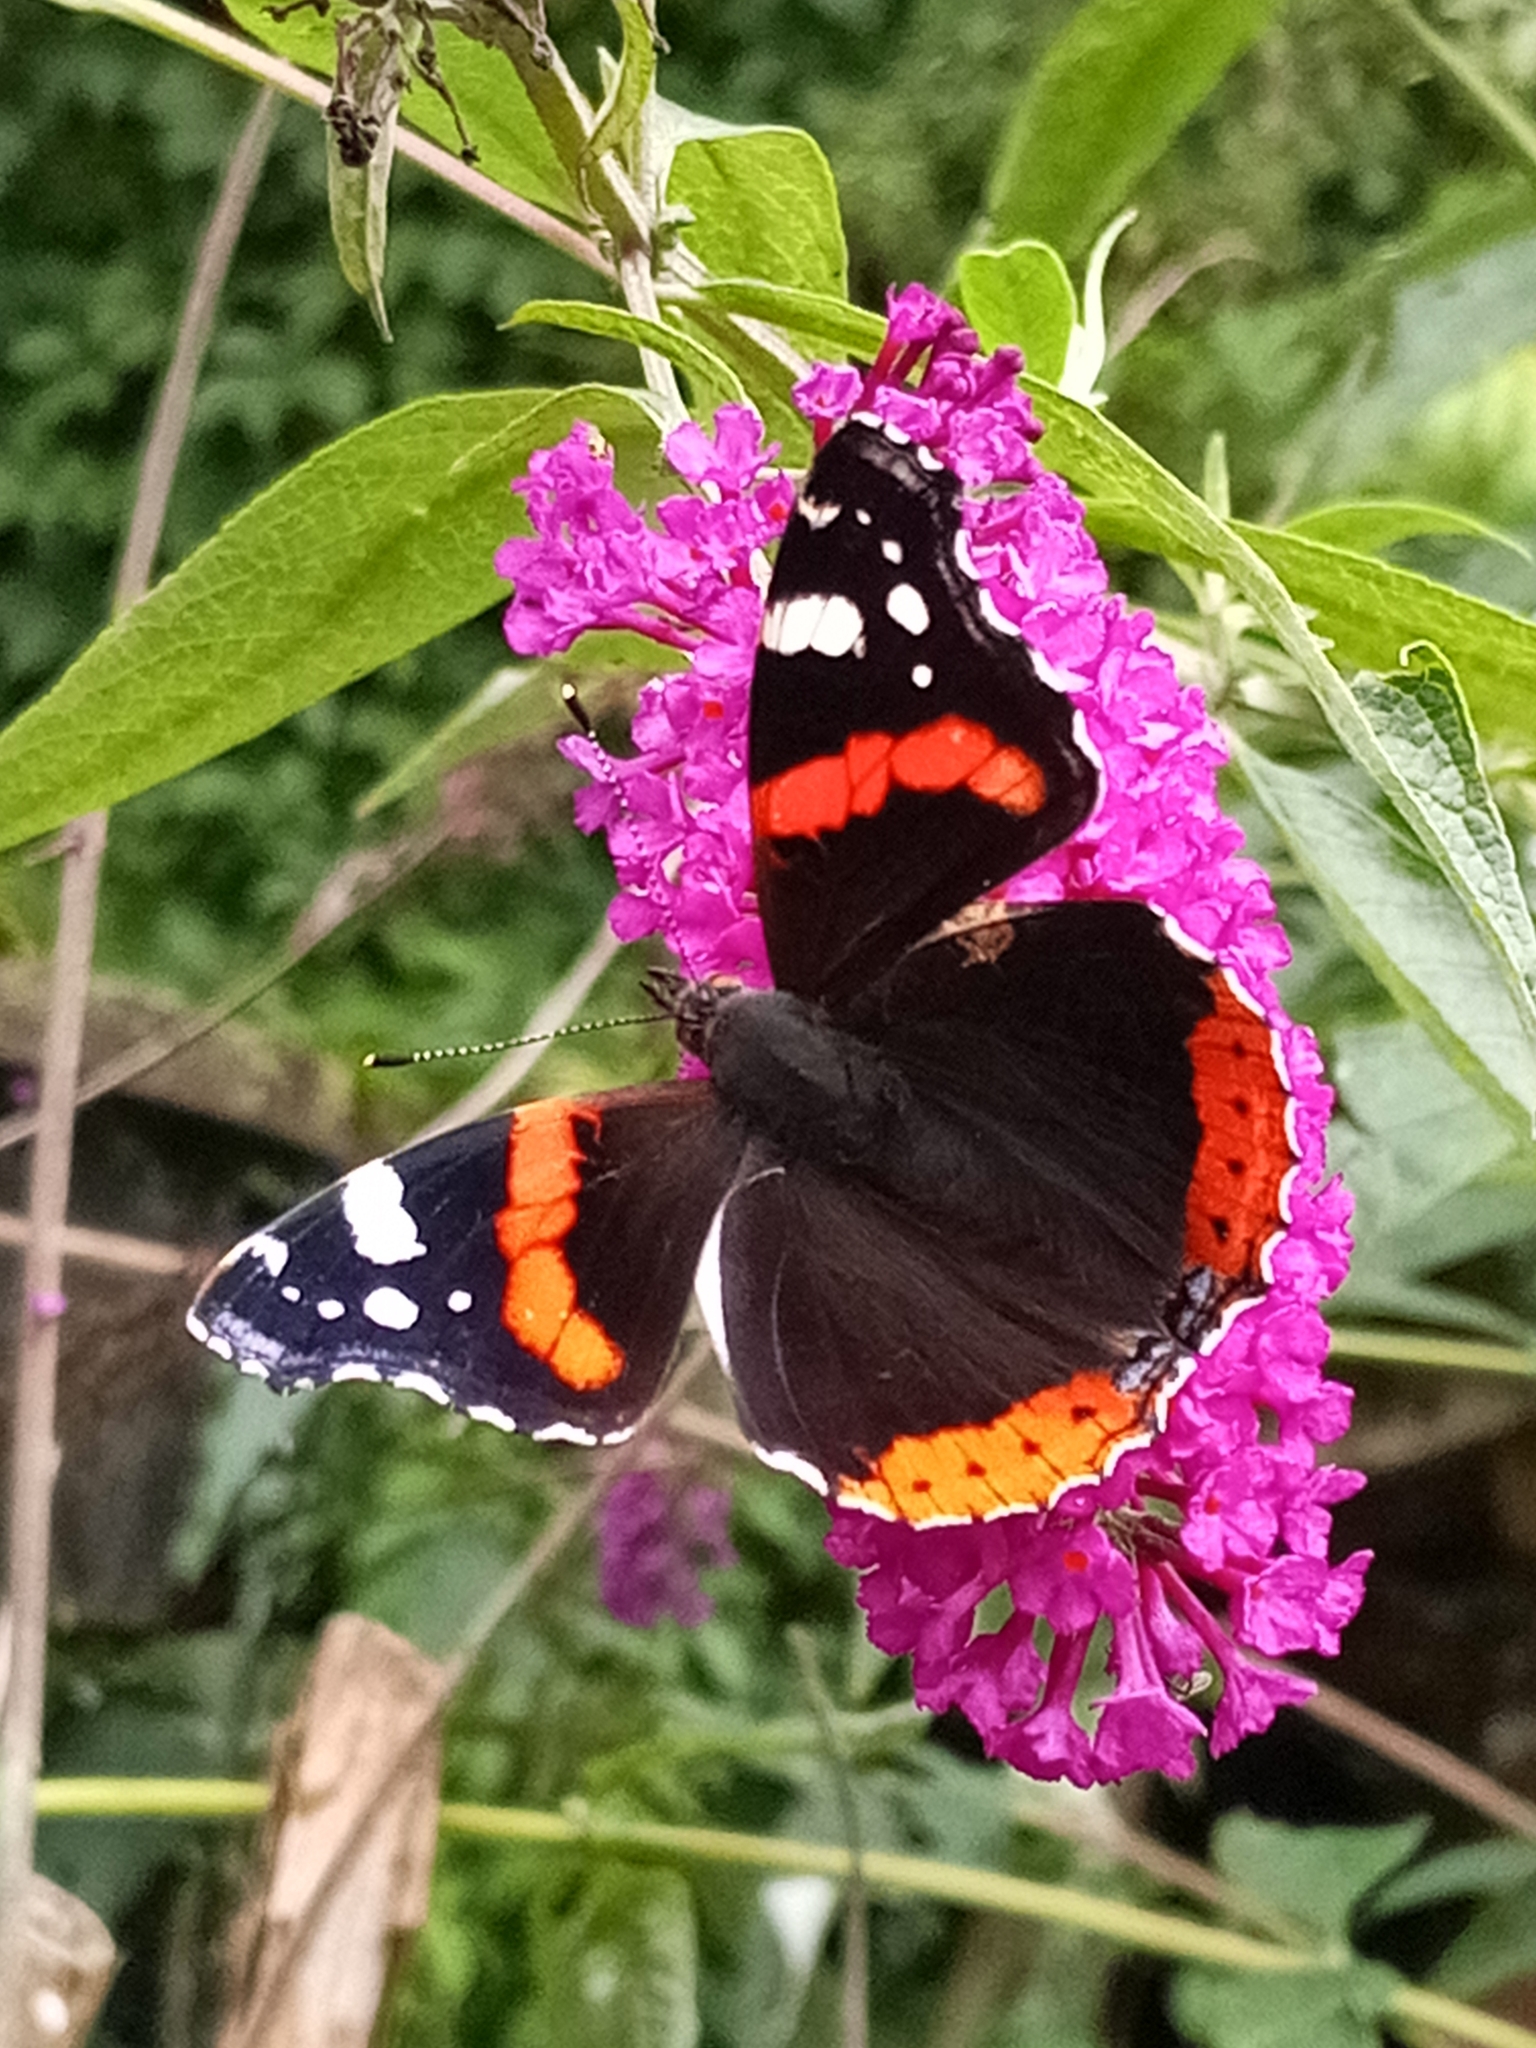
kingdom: Animalia
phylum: Arthropoda
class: Insecta
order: Lepidoptera
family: Nymphalidae
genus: Vanessa
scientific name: Vanessa atalanta
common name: Red admiral
